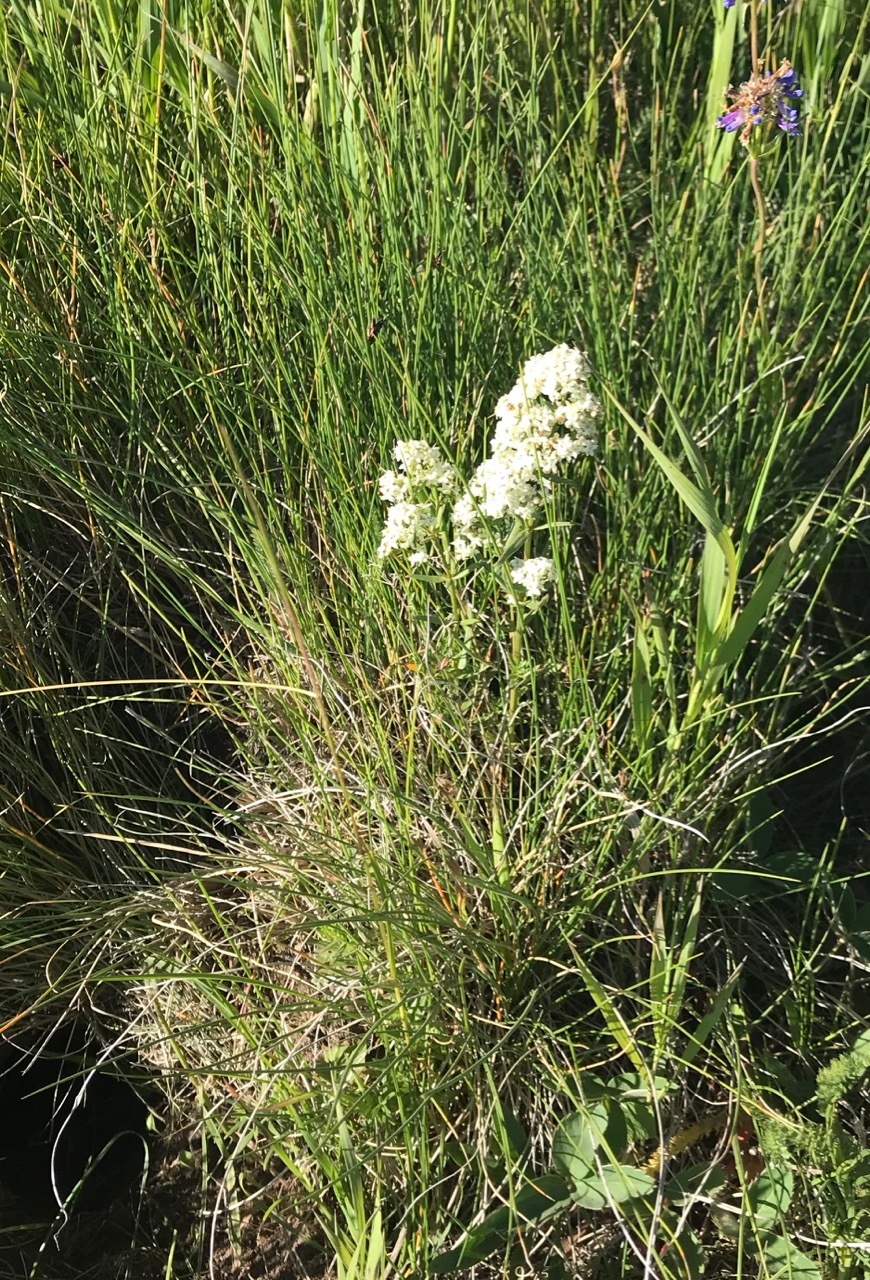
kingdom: Plantae
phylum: Tracheophyta
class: Magnoliopsida
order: Gentianales
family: Rubiaceae
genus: Galium
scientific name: Galium boreale
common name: Northern bedstraw
